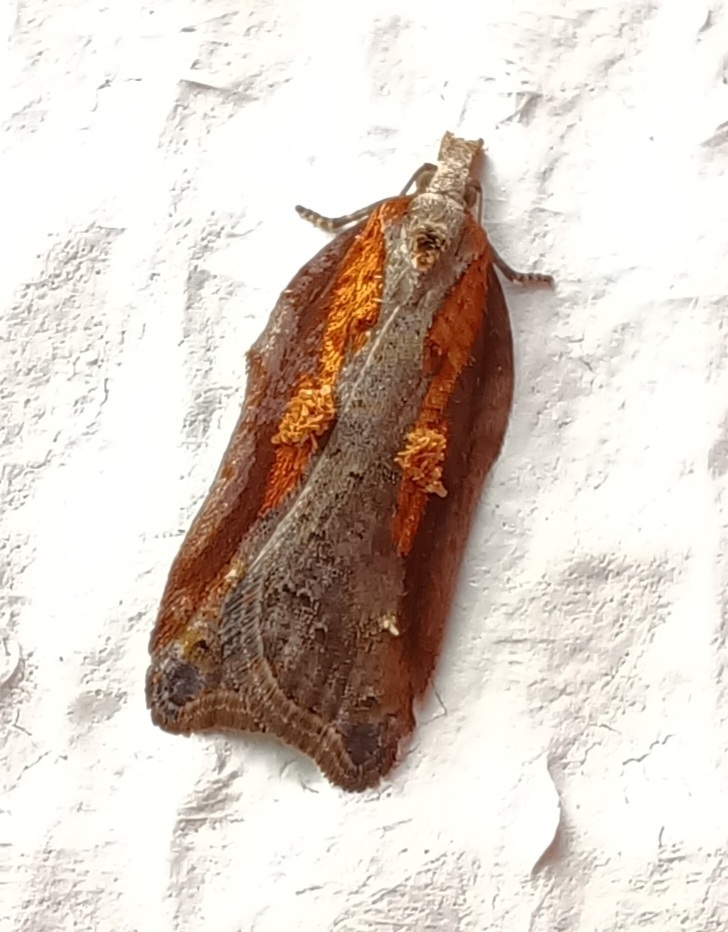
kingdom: Animalia
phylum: Arthropoda
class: Insecta
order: Lepidoptera
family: Tortricidae
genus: Acleris
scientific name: Acleris cristana
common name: Tufted button
